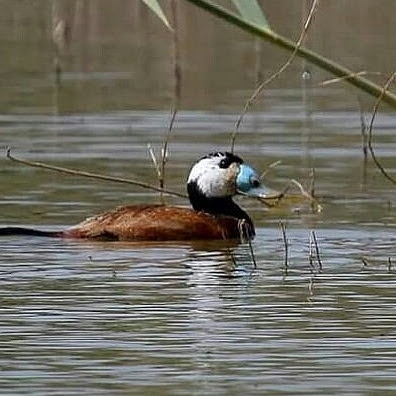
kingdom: Animalia
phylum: Chordata
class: Aves
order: Anseriformes
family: Anatidae
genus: Oxyura
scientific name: Oxyura leucocephala
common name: White-headed duck
